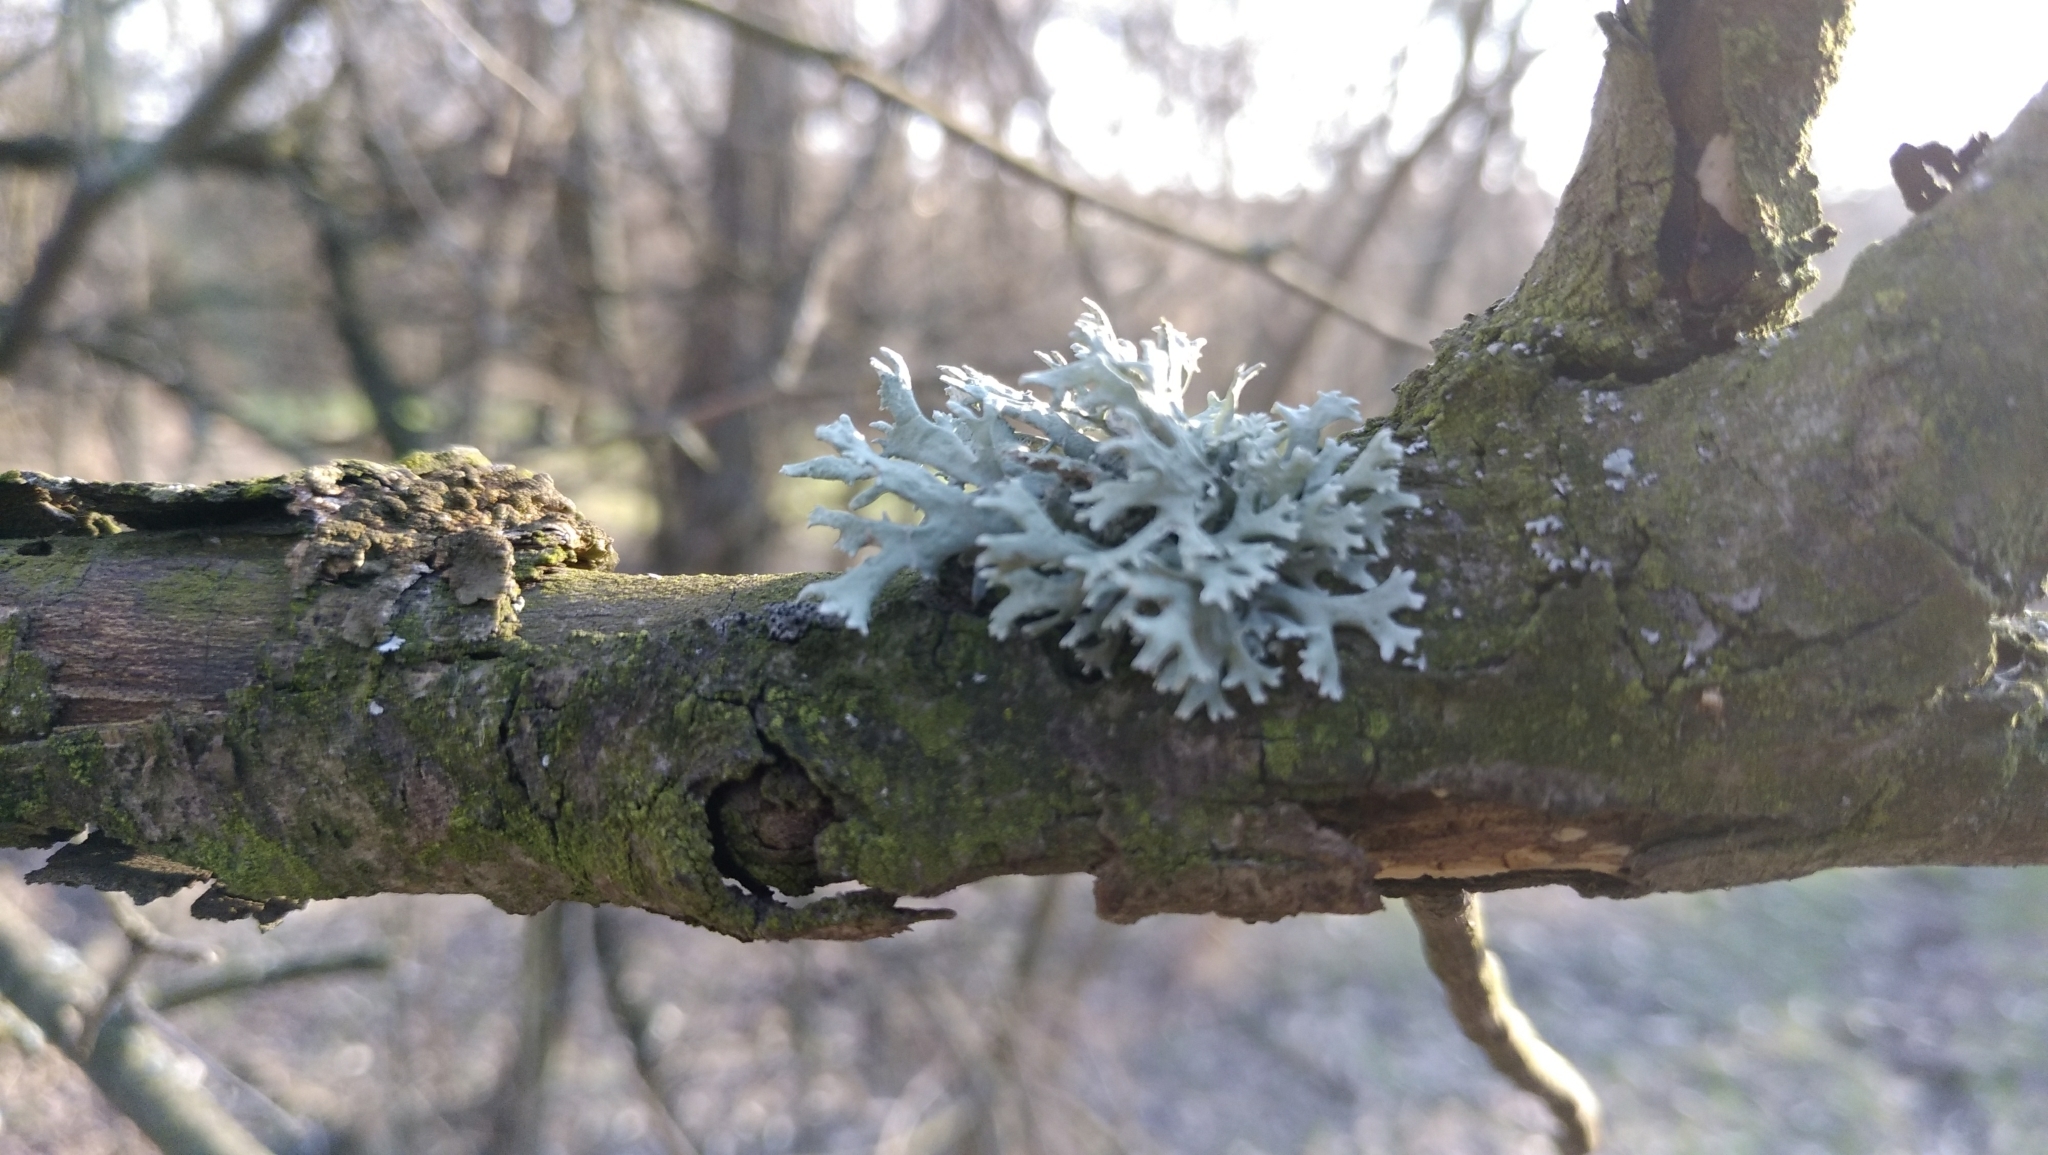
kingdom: Fungi
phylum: Ascomycota
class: Lecanoromycetes
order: Lecanorales
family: Parmeliaceae
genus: Evernia
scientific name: Evernia prunastri
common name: Oak moss
